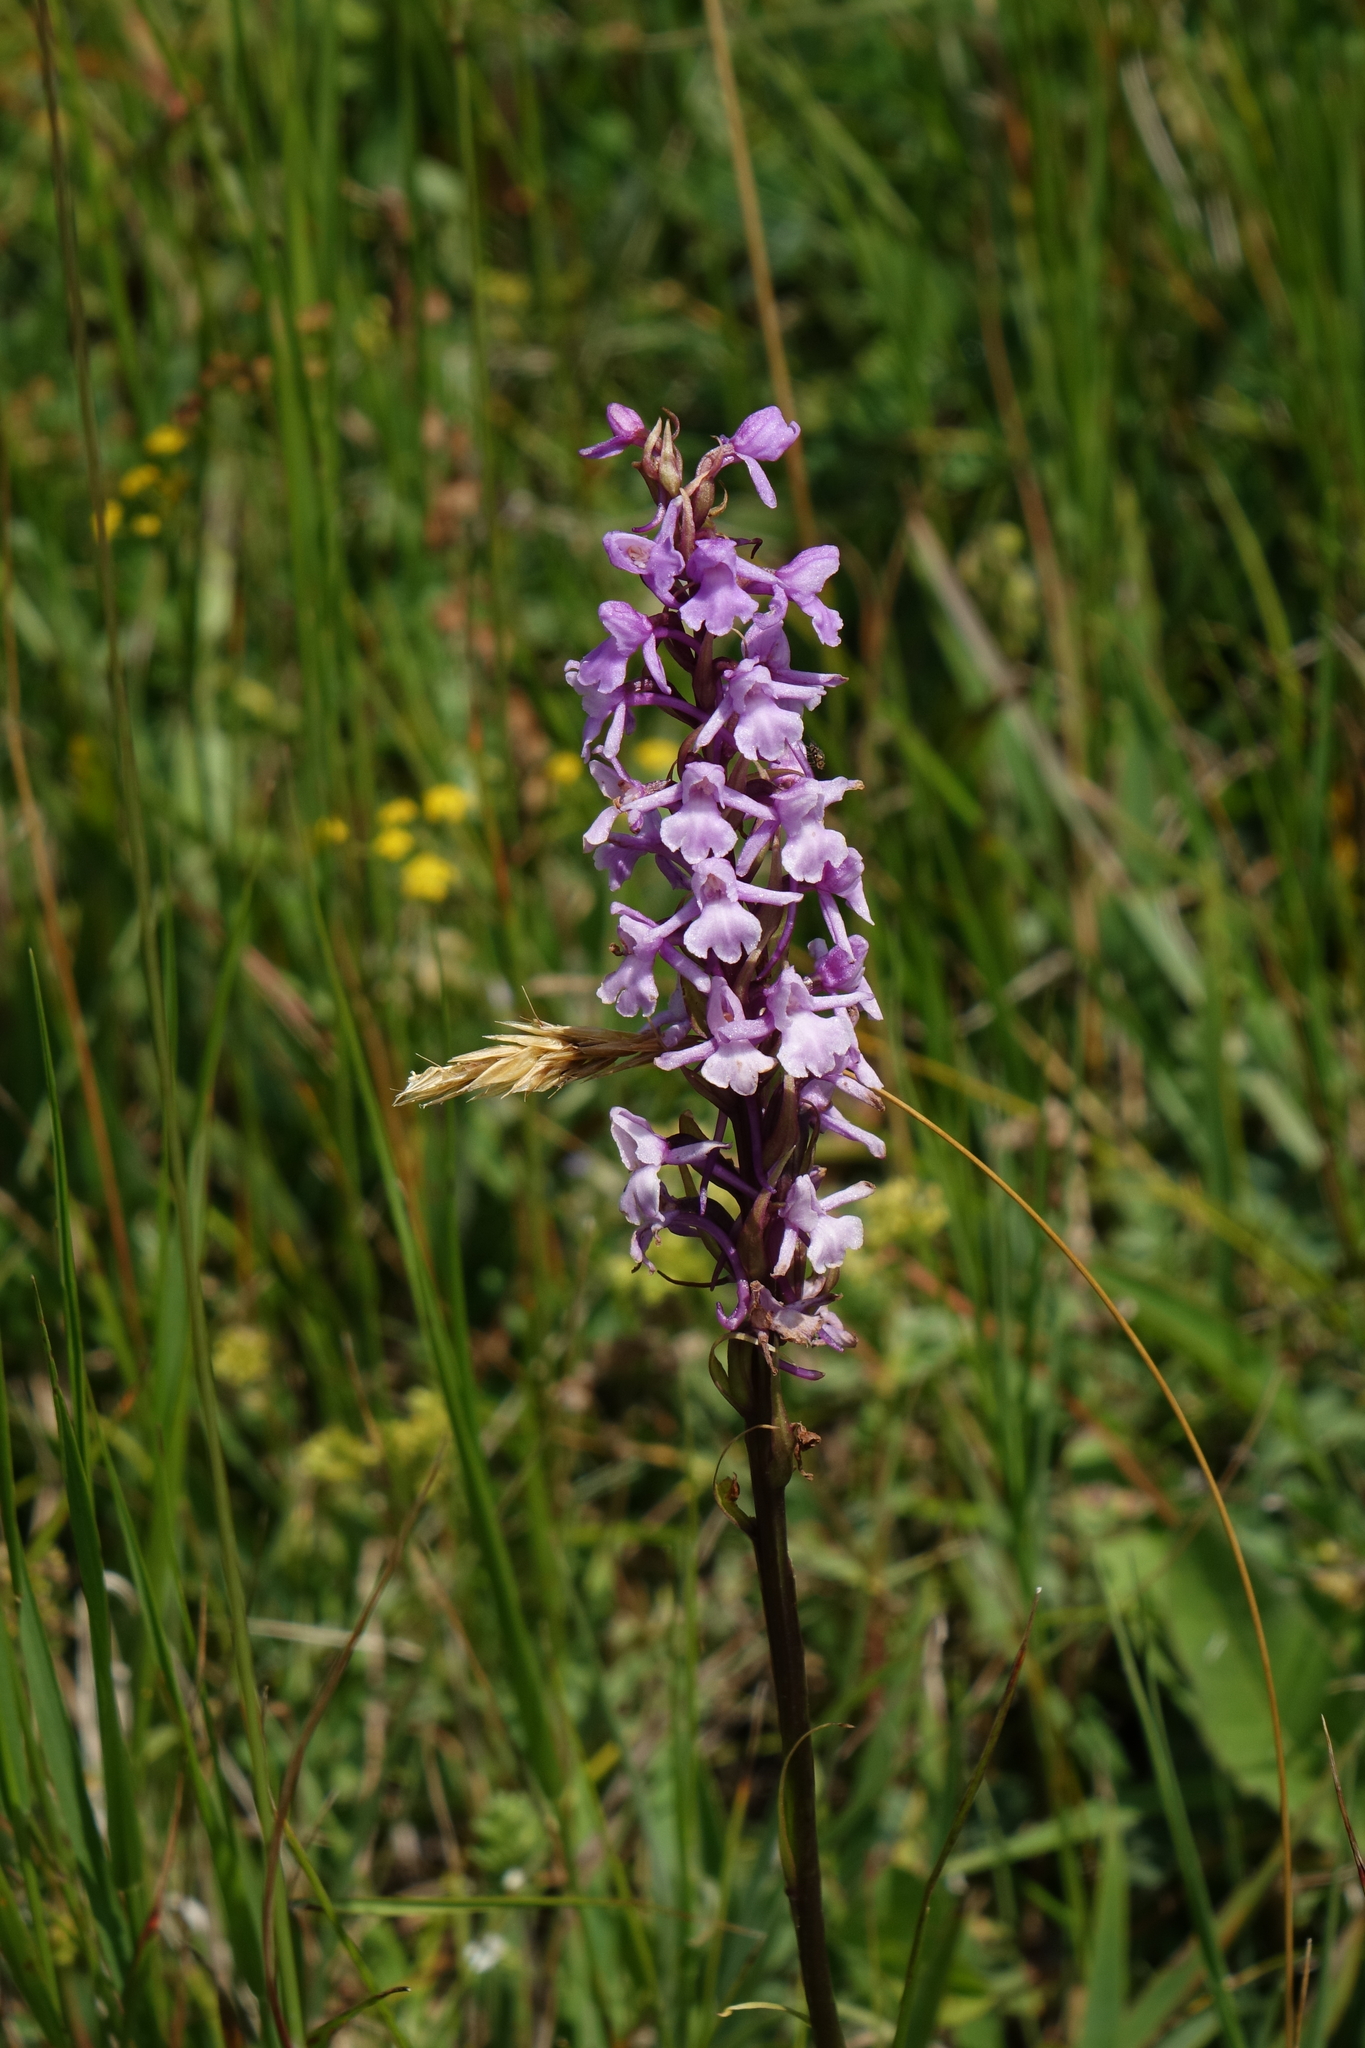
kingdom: Plantae
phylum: Tracheophyta
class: Liliopsida
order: Asparagales
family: Orchidaceae
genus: Gymnadenia
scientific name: Gymnadenia conopsea
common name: Fragrant orchid
